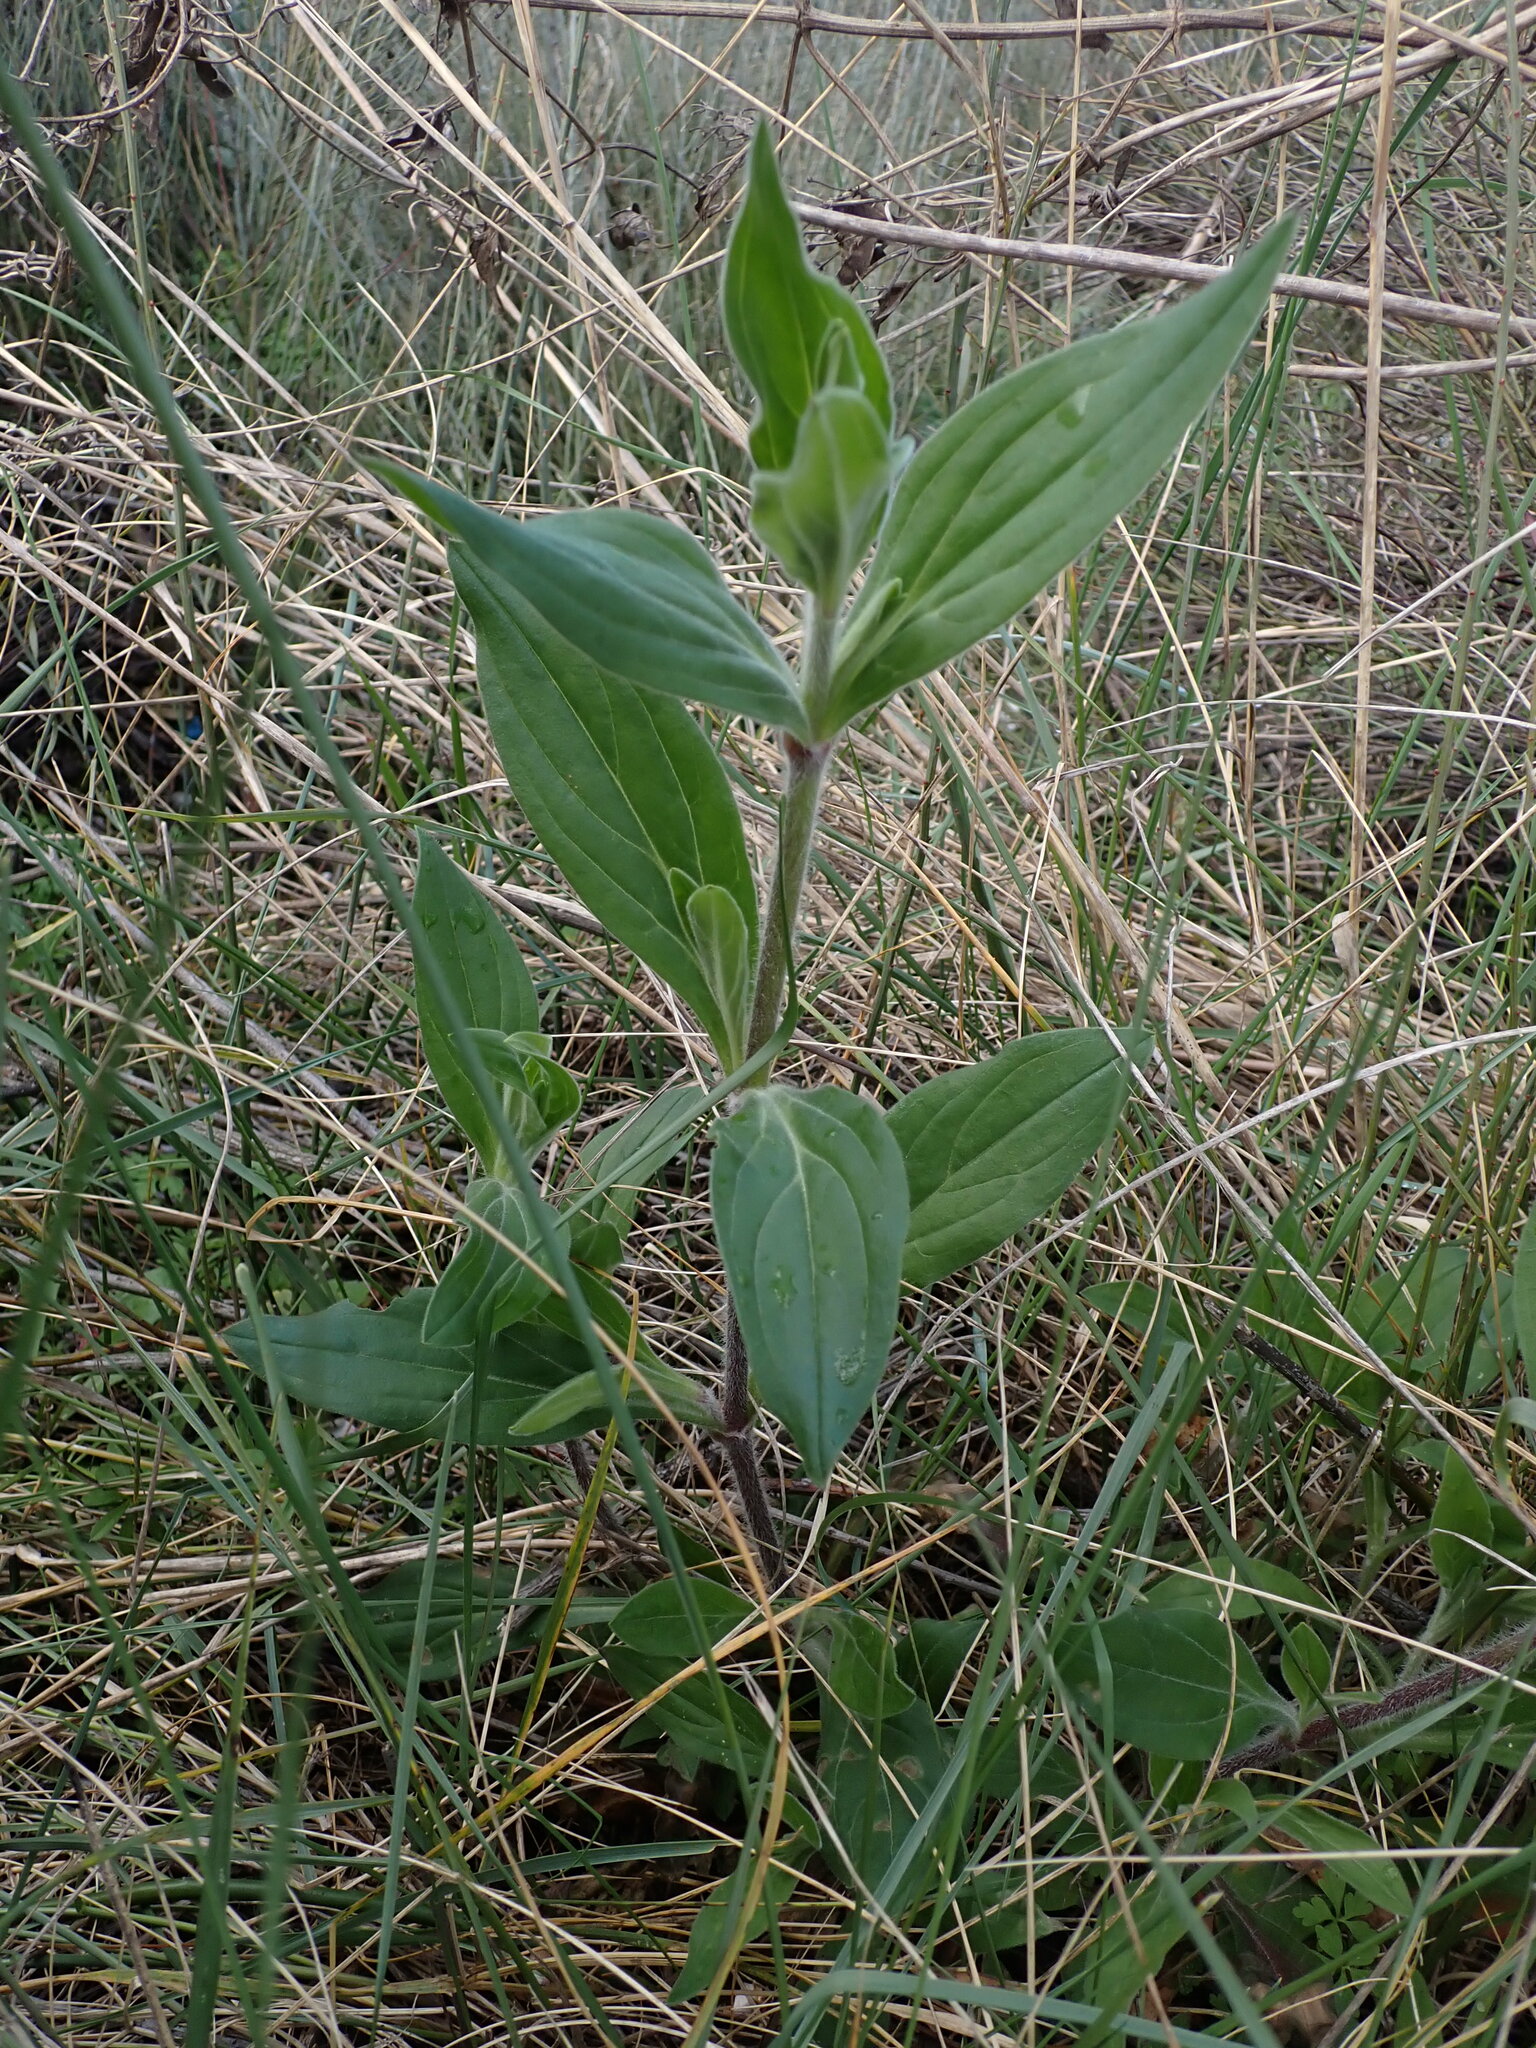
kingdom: Plantae
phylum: Tracheophyta
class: Magnoliopsida
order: Caryophyllales
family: Caryophyllaceae
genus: Silene
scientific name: Silene latifolia
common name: White campion
